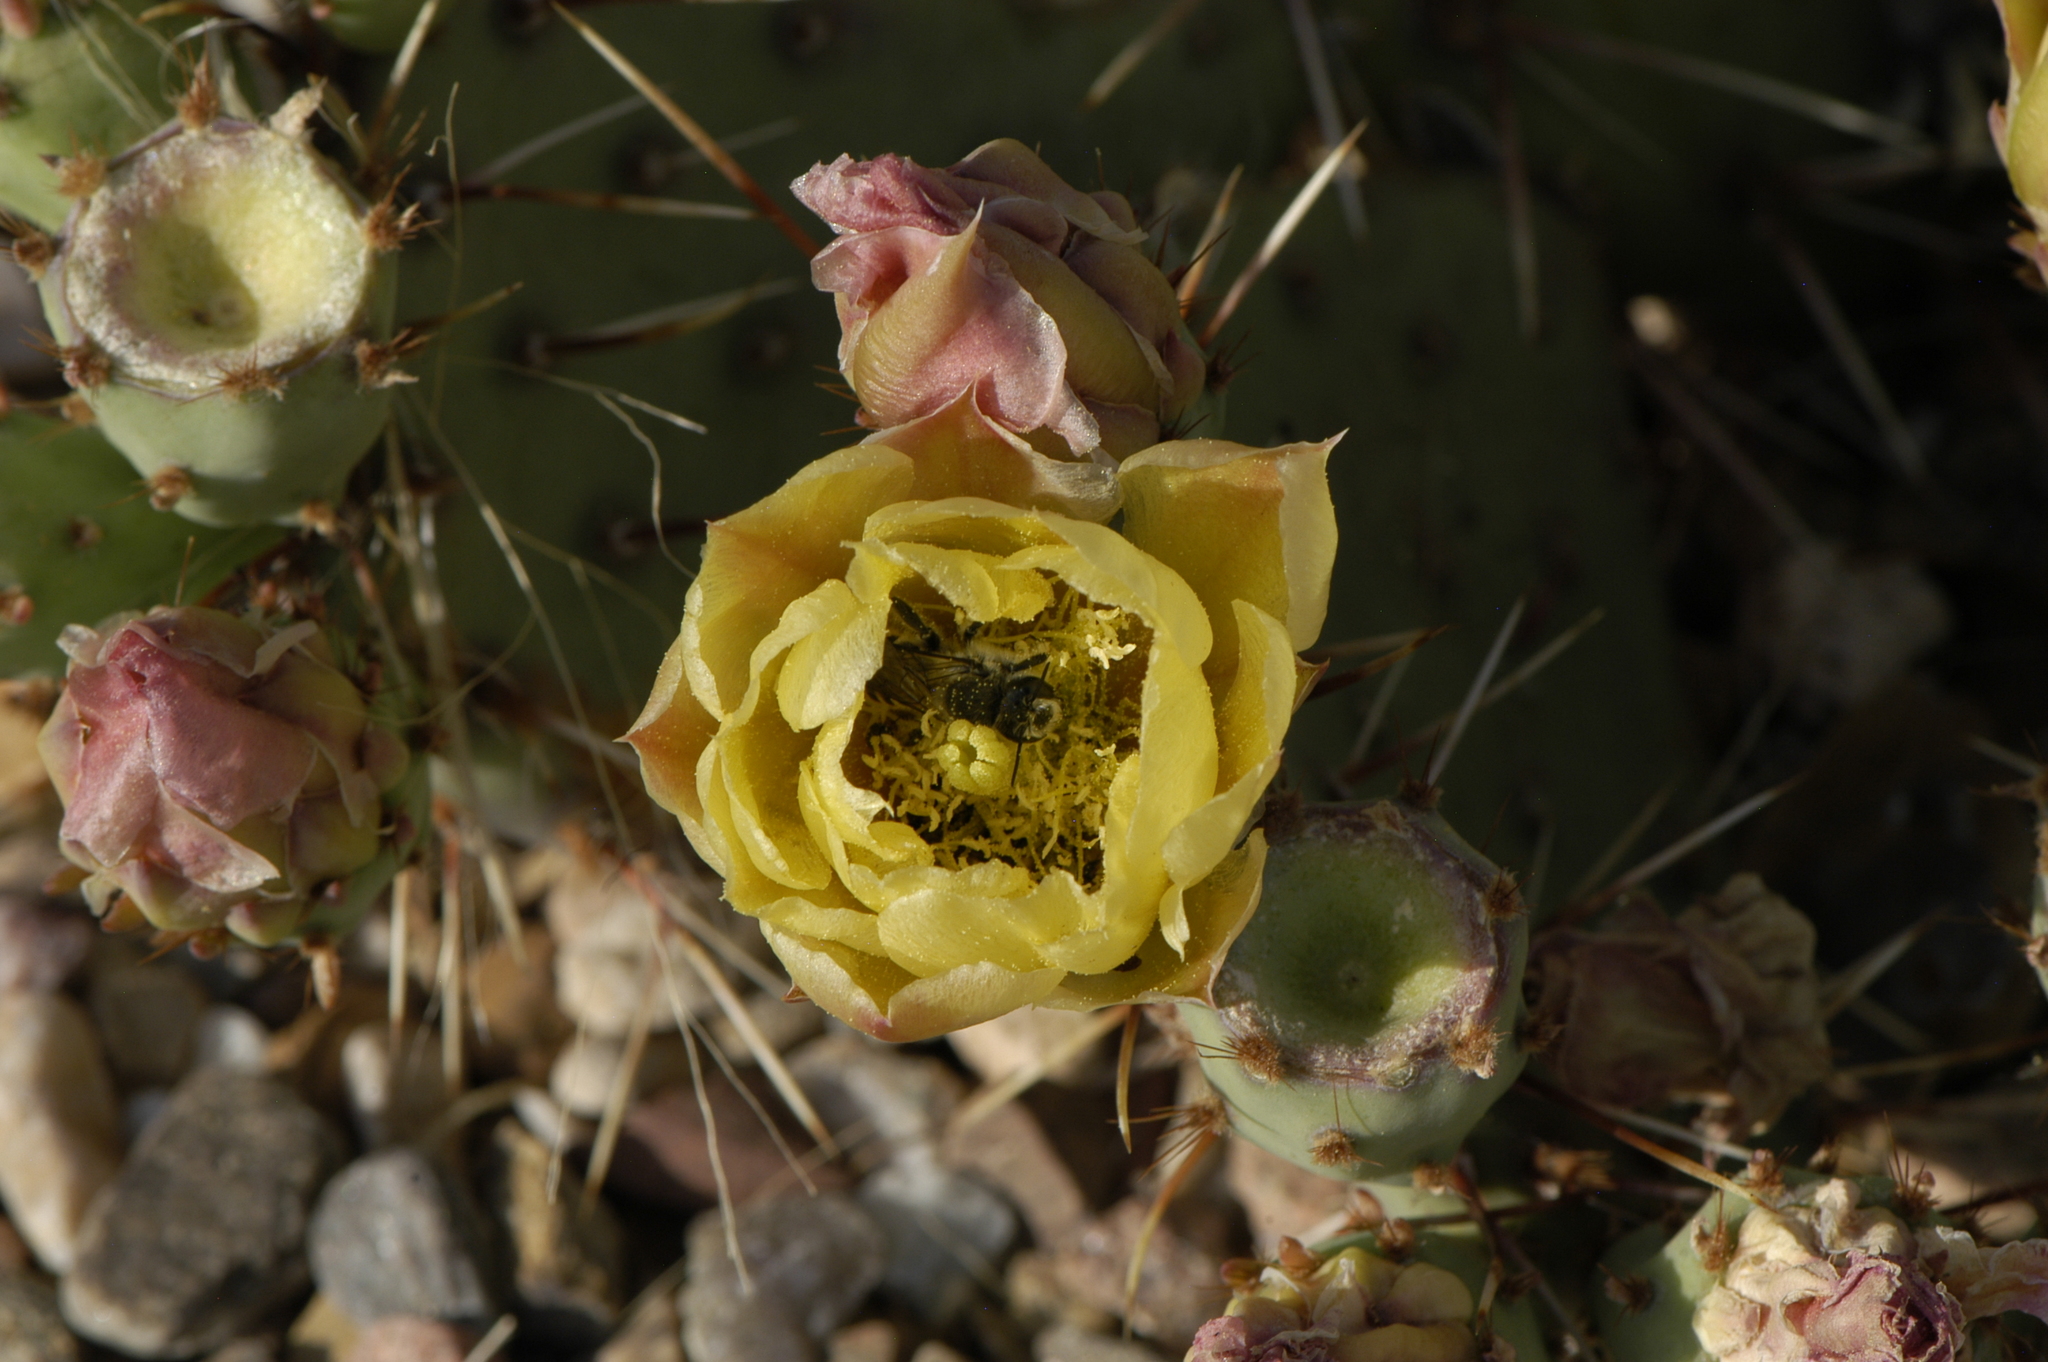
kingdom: Animalia
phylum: Arthropoda
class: Insecta
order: Hymenoptera
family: Megachilidae
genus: Lithurgopsis
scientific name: Lithurgopsis apicalis
